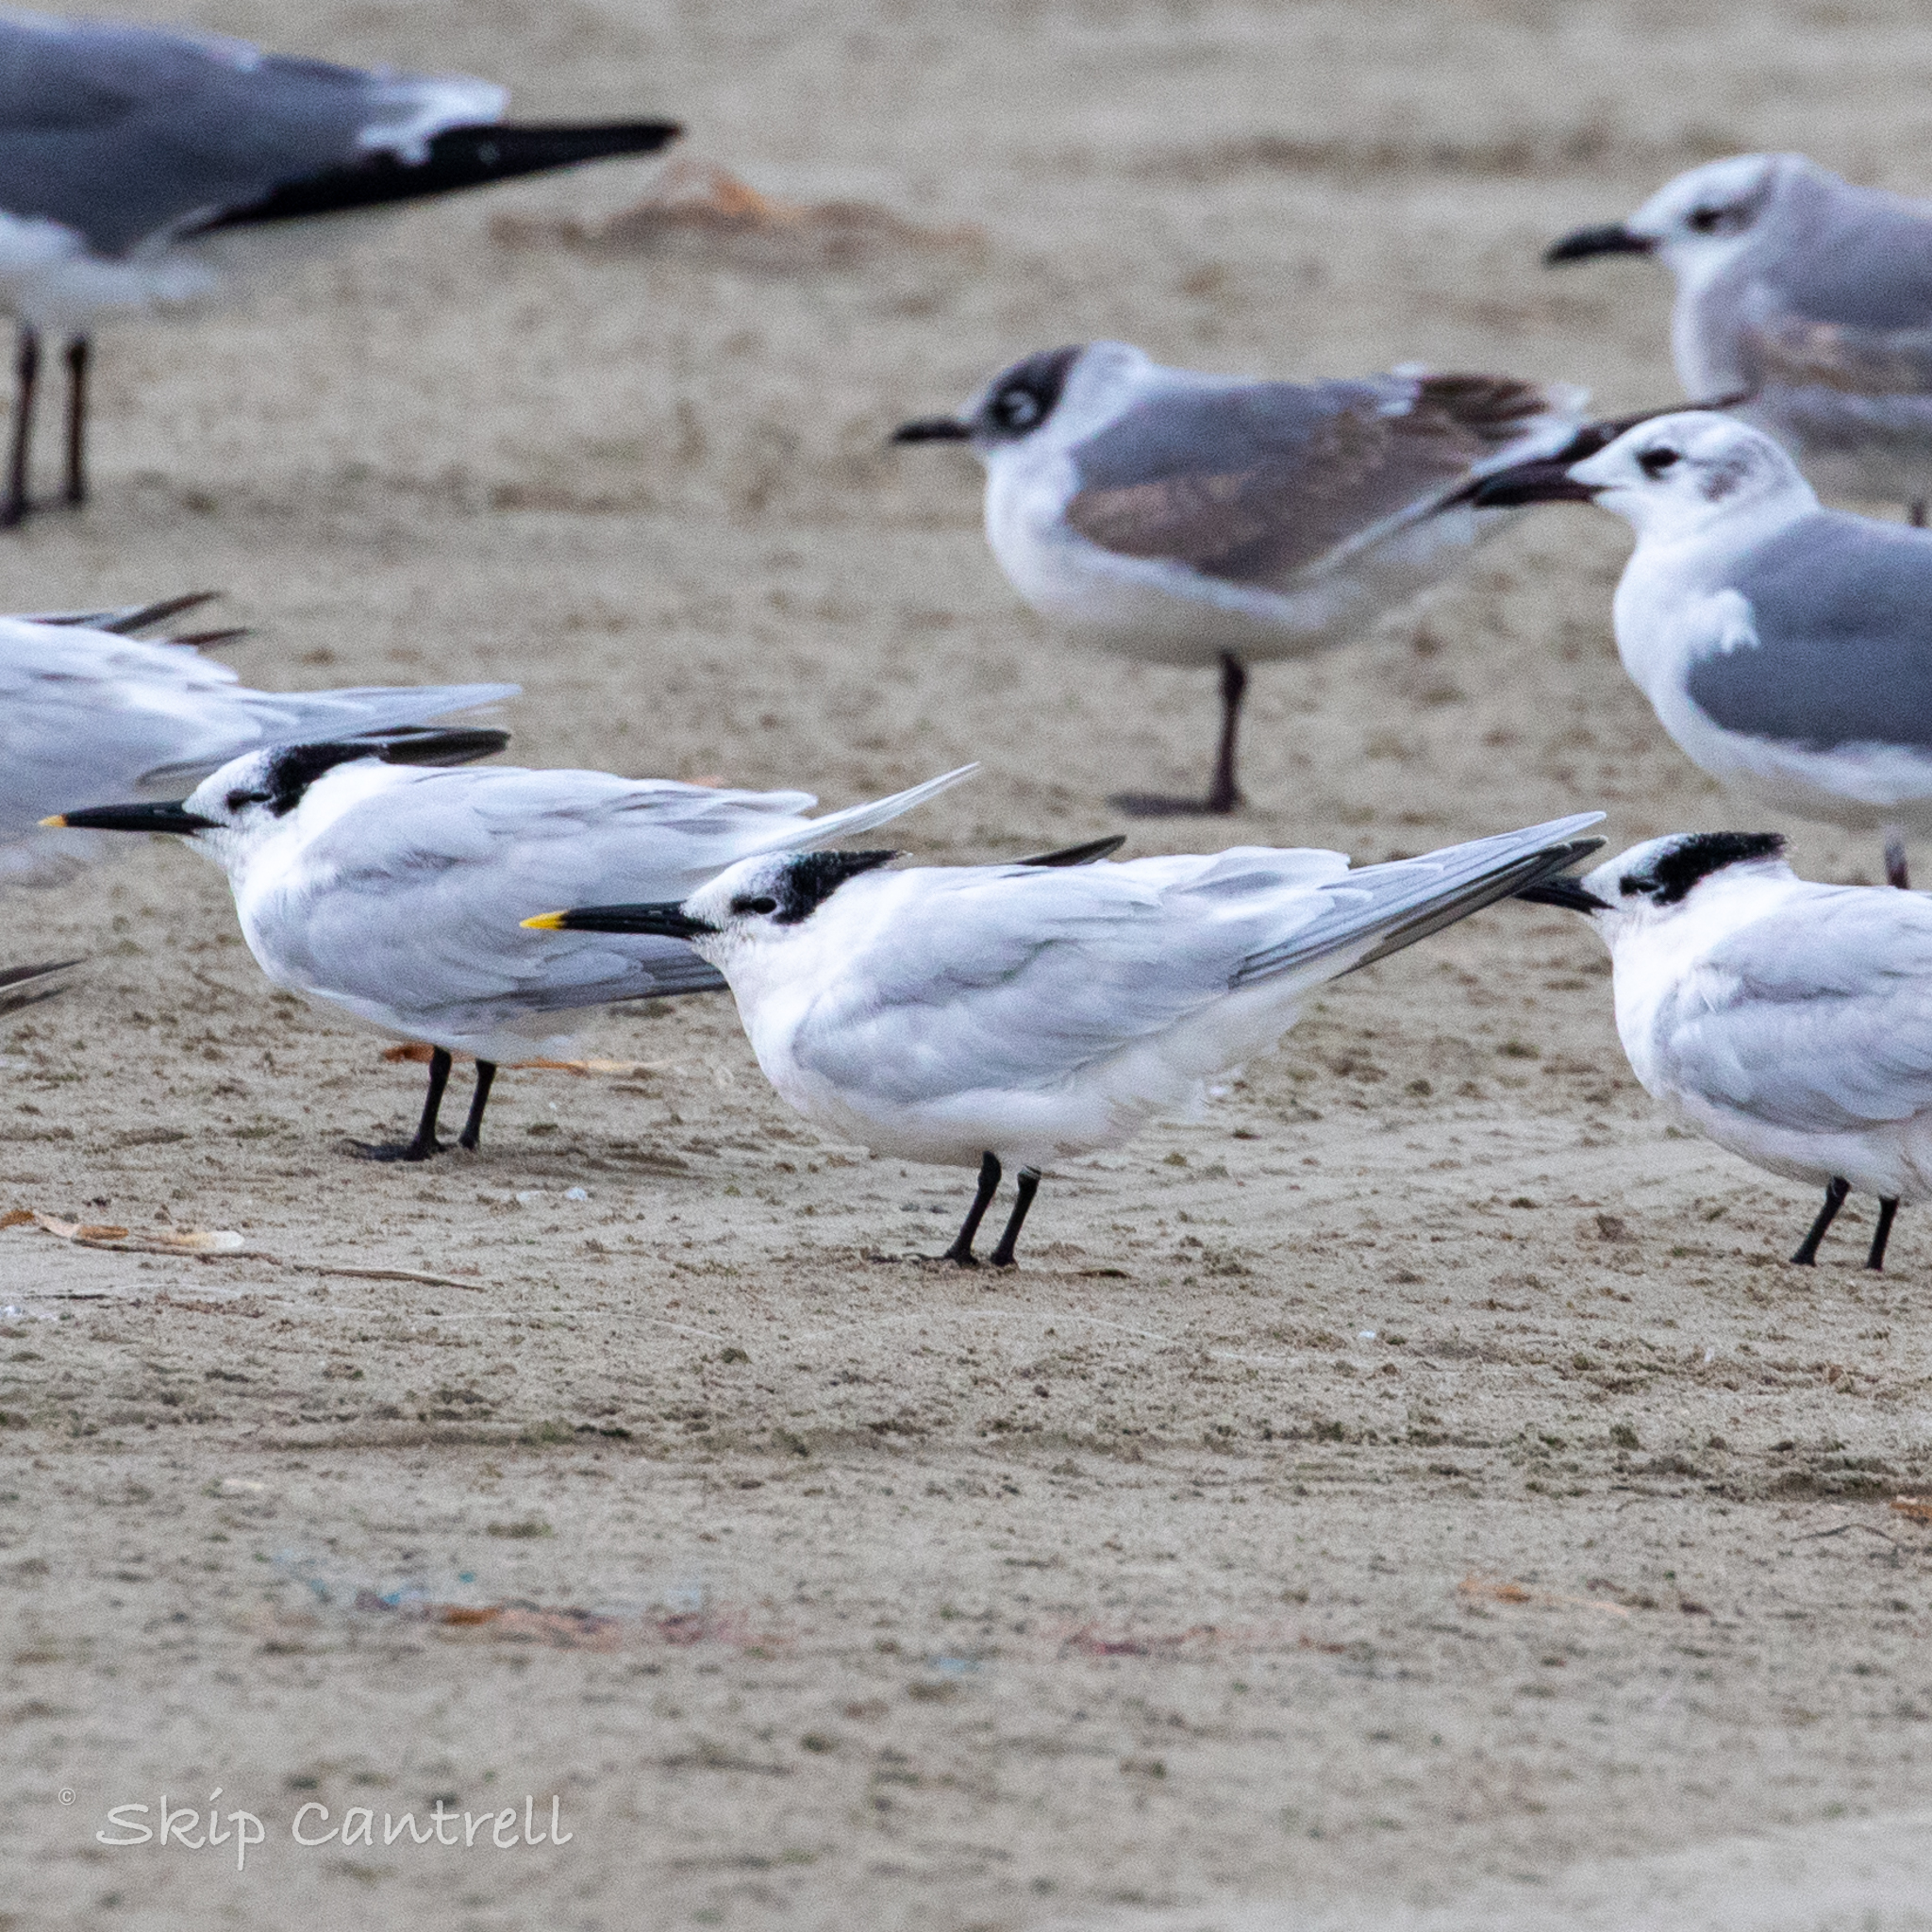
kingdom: Animalia
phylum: Chordata
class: Aves
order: Charadriiformes
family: Laridae
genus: Thalasseus
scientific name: Thalasseus sandvicensis
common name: Sandwich tern
